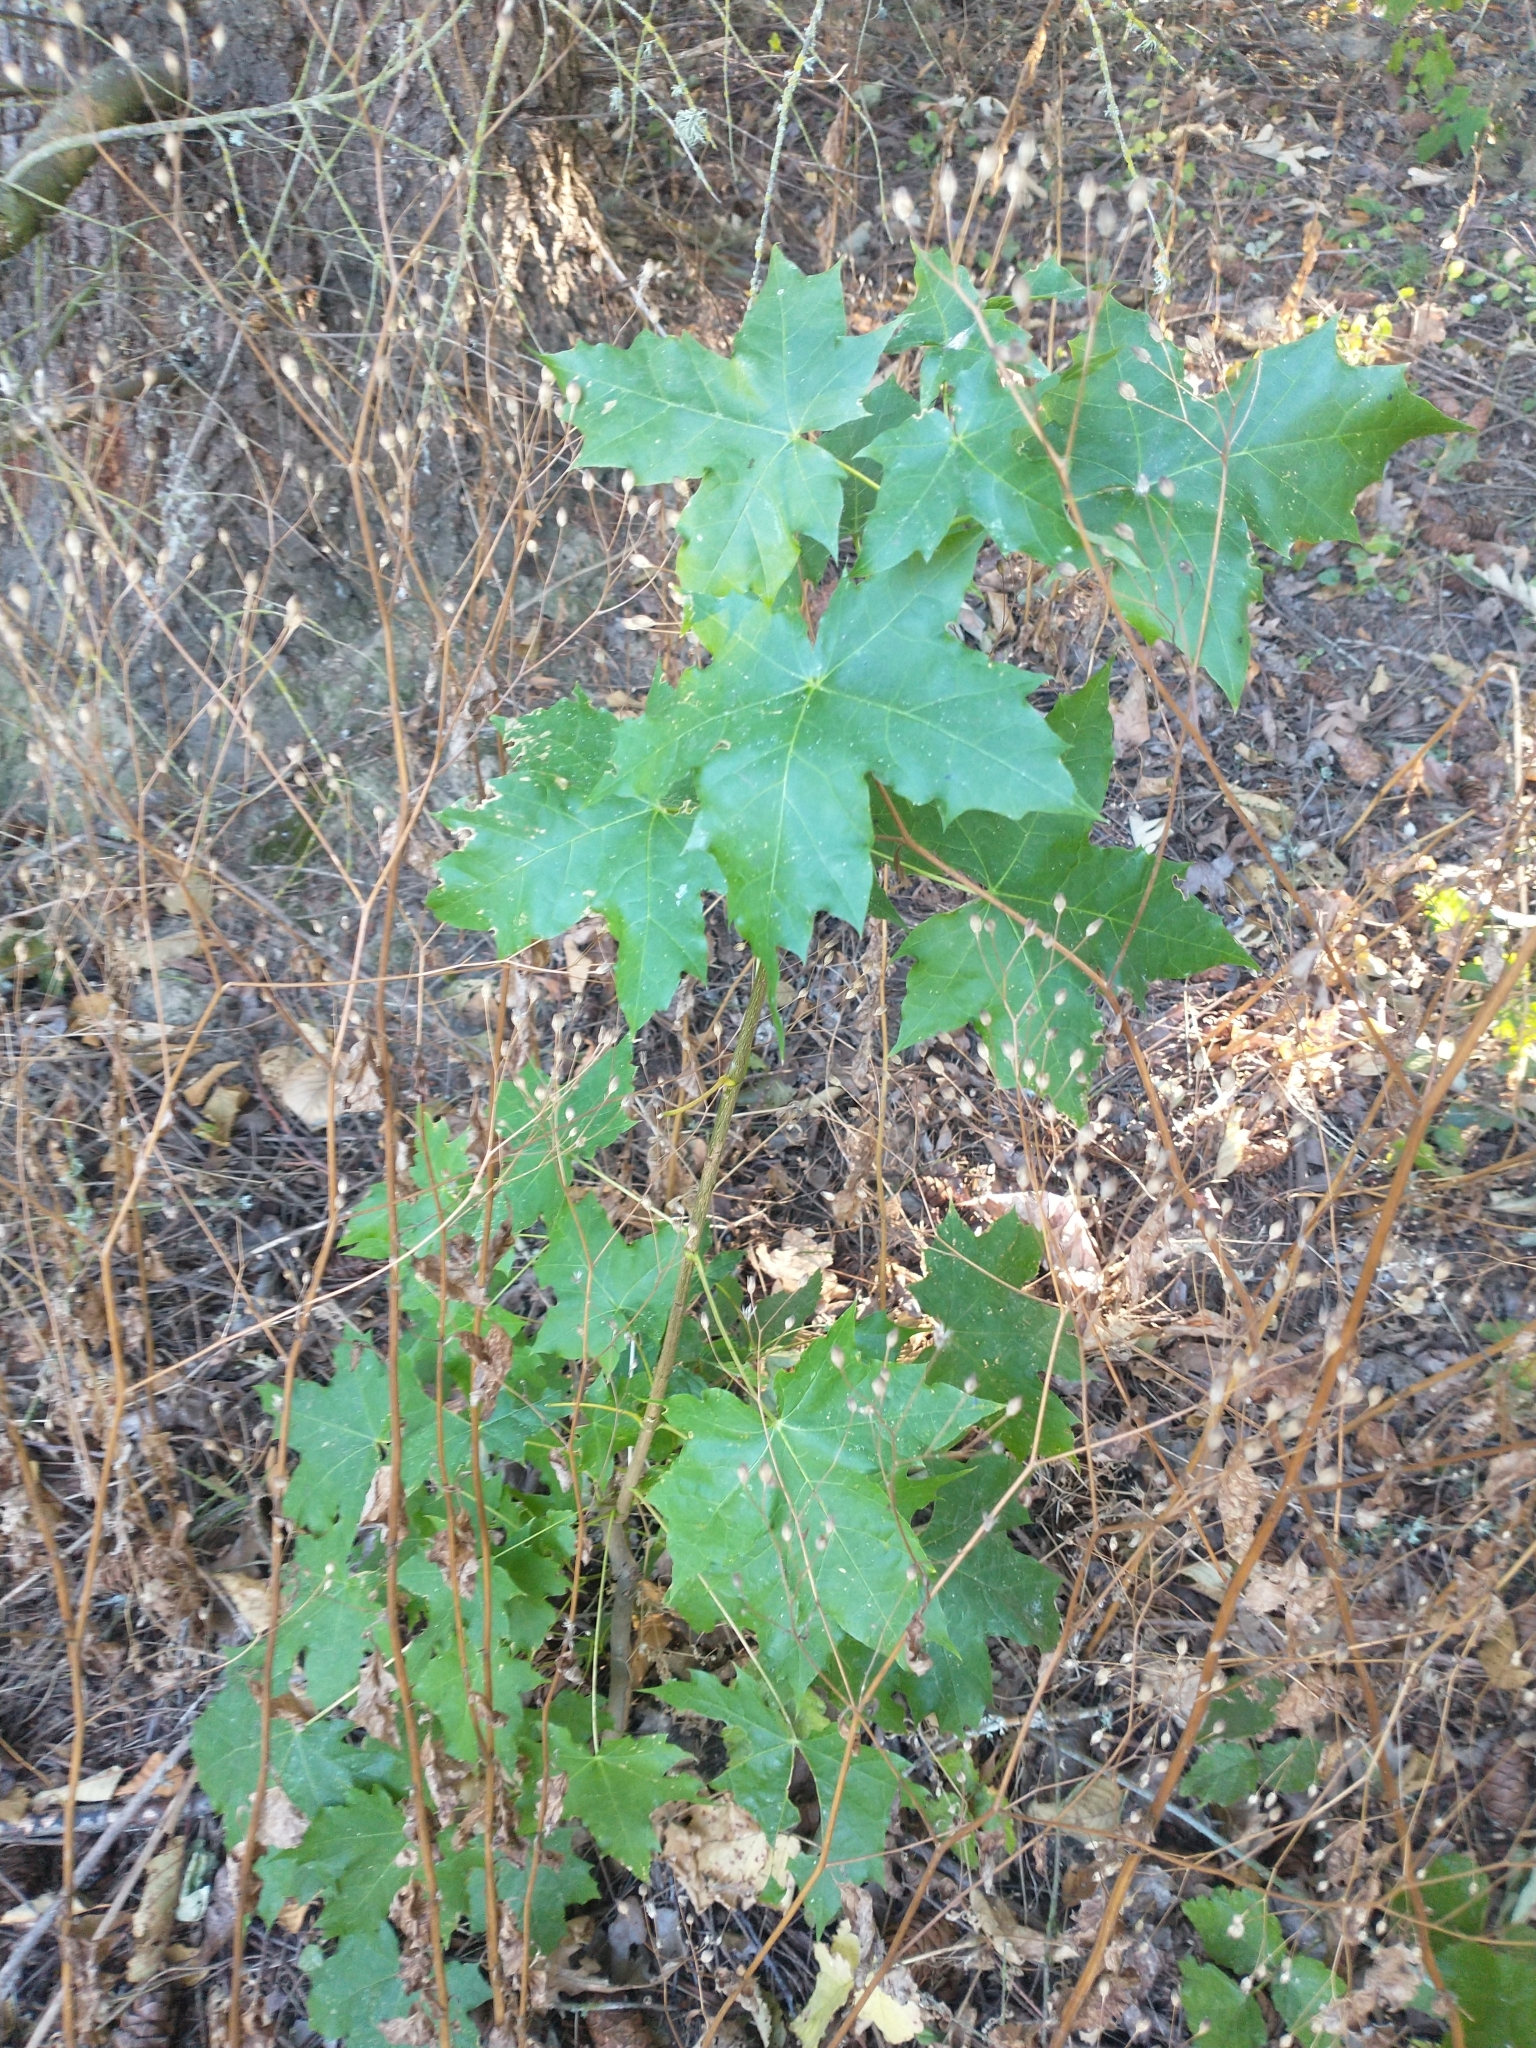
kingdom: Plantae
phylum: Tracheophyta
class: Magnoliopsida
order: Sapindales
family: Sapindaceae
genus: Acer
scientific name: Acer macrophyllum
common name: Oregon maple
